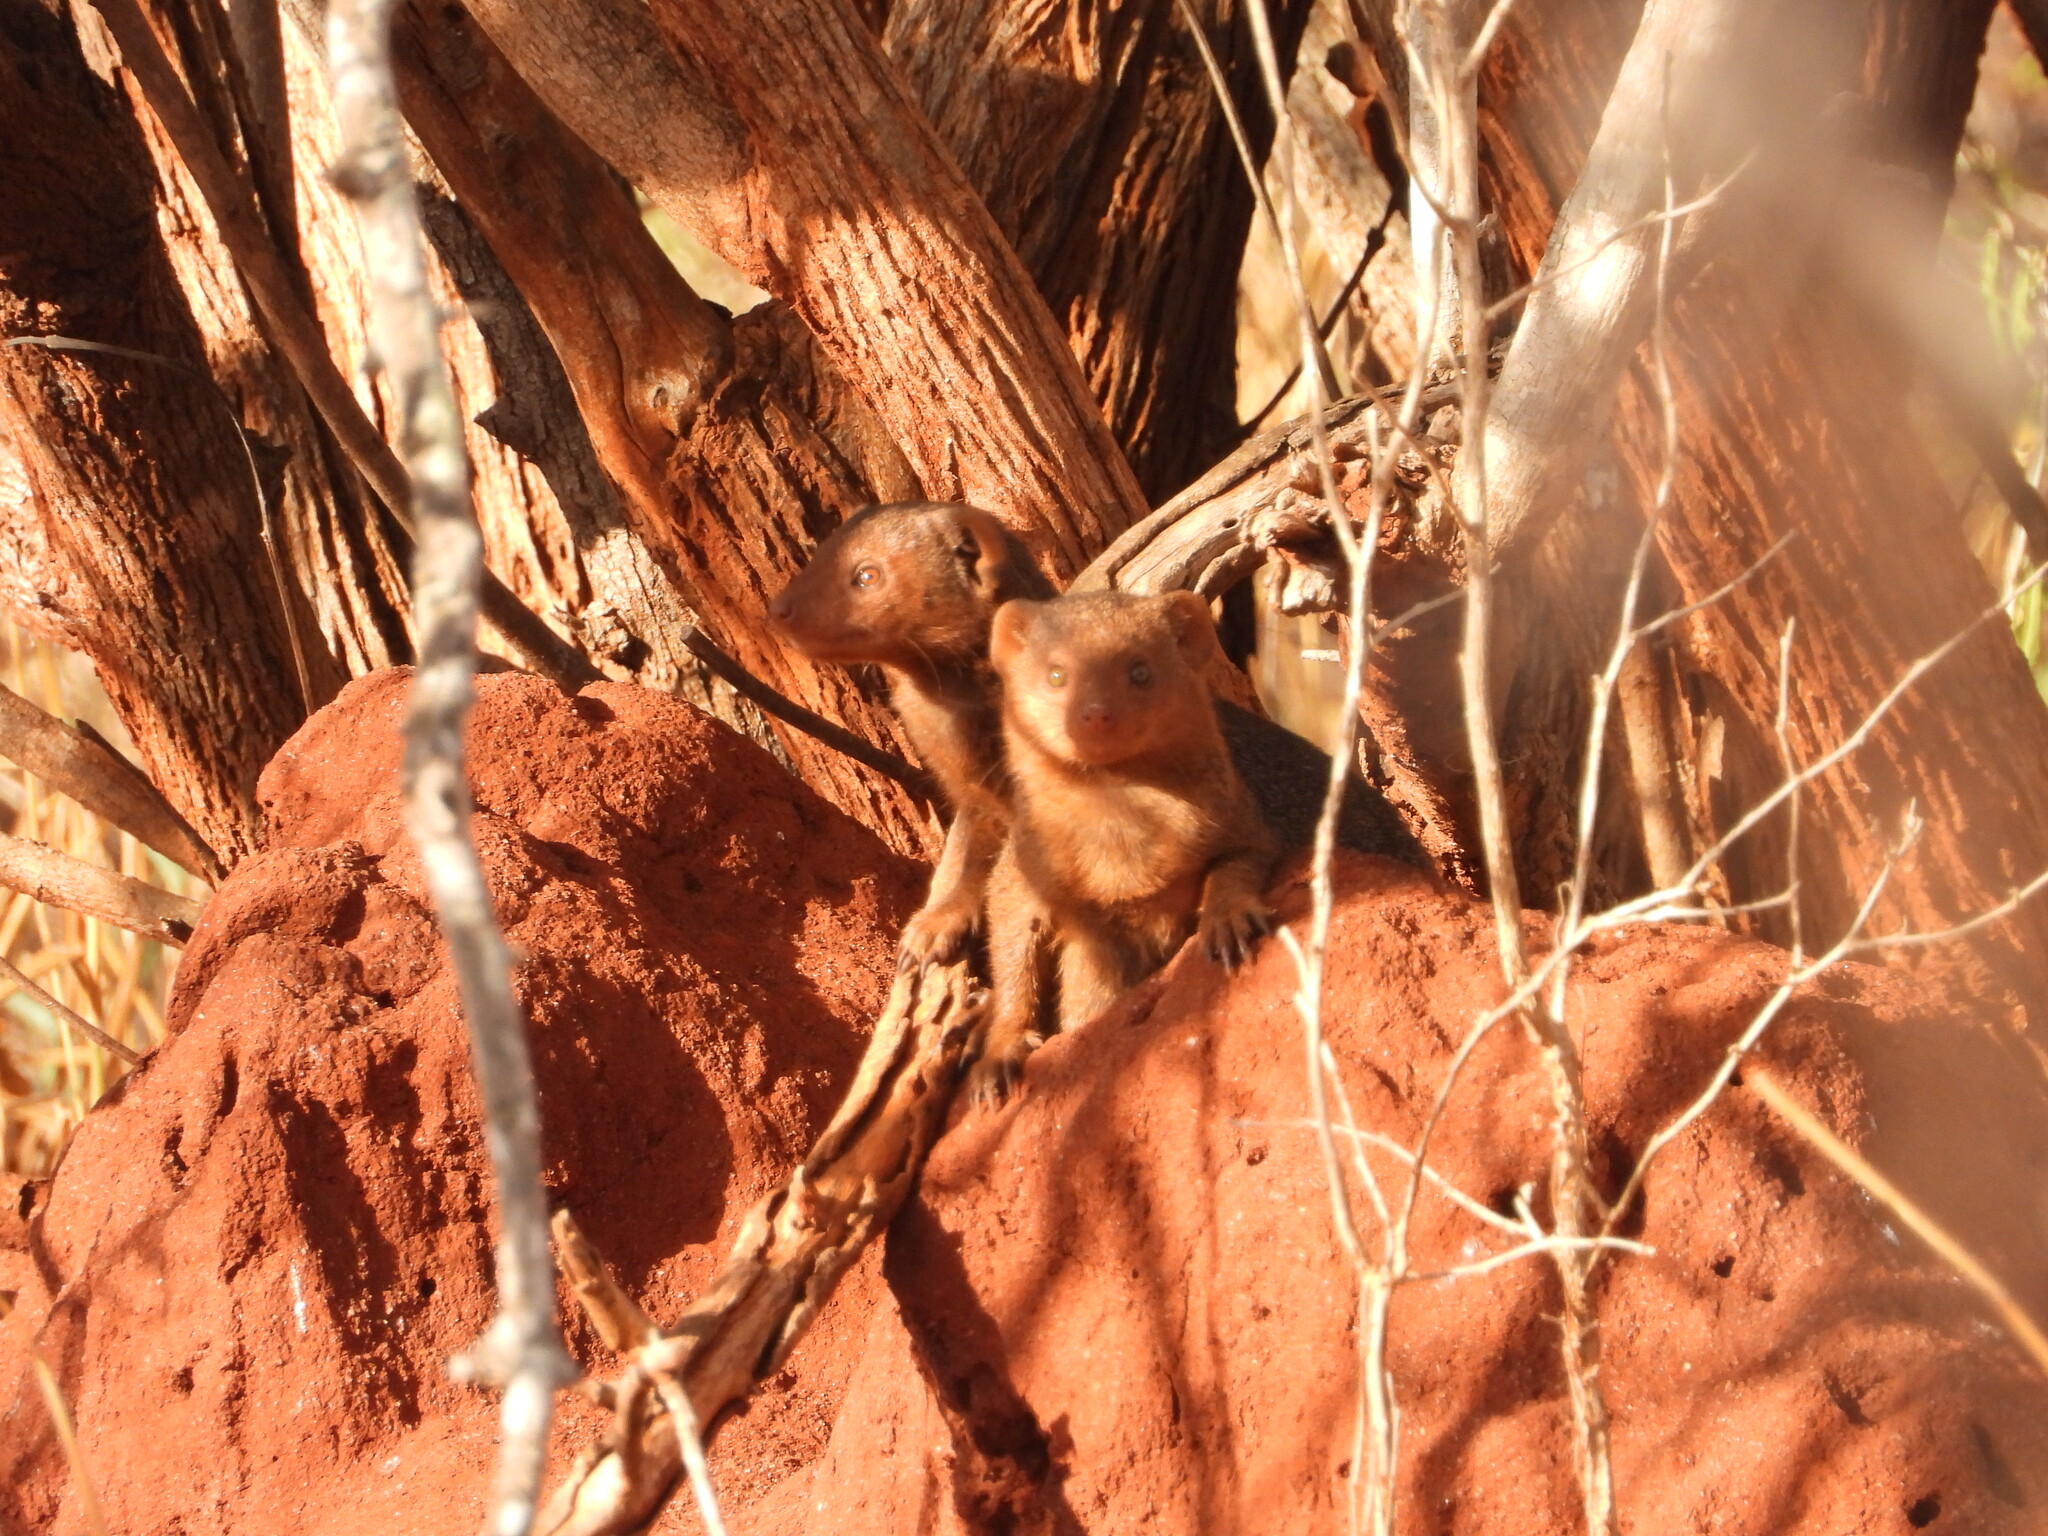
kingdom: Animalia
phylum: Chordata
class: Mammalia
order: Carnivora
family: Herpestidae
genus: Helogale
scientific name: Helogale parvula
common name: Common dwarf mongoose
